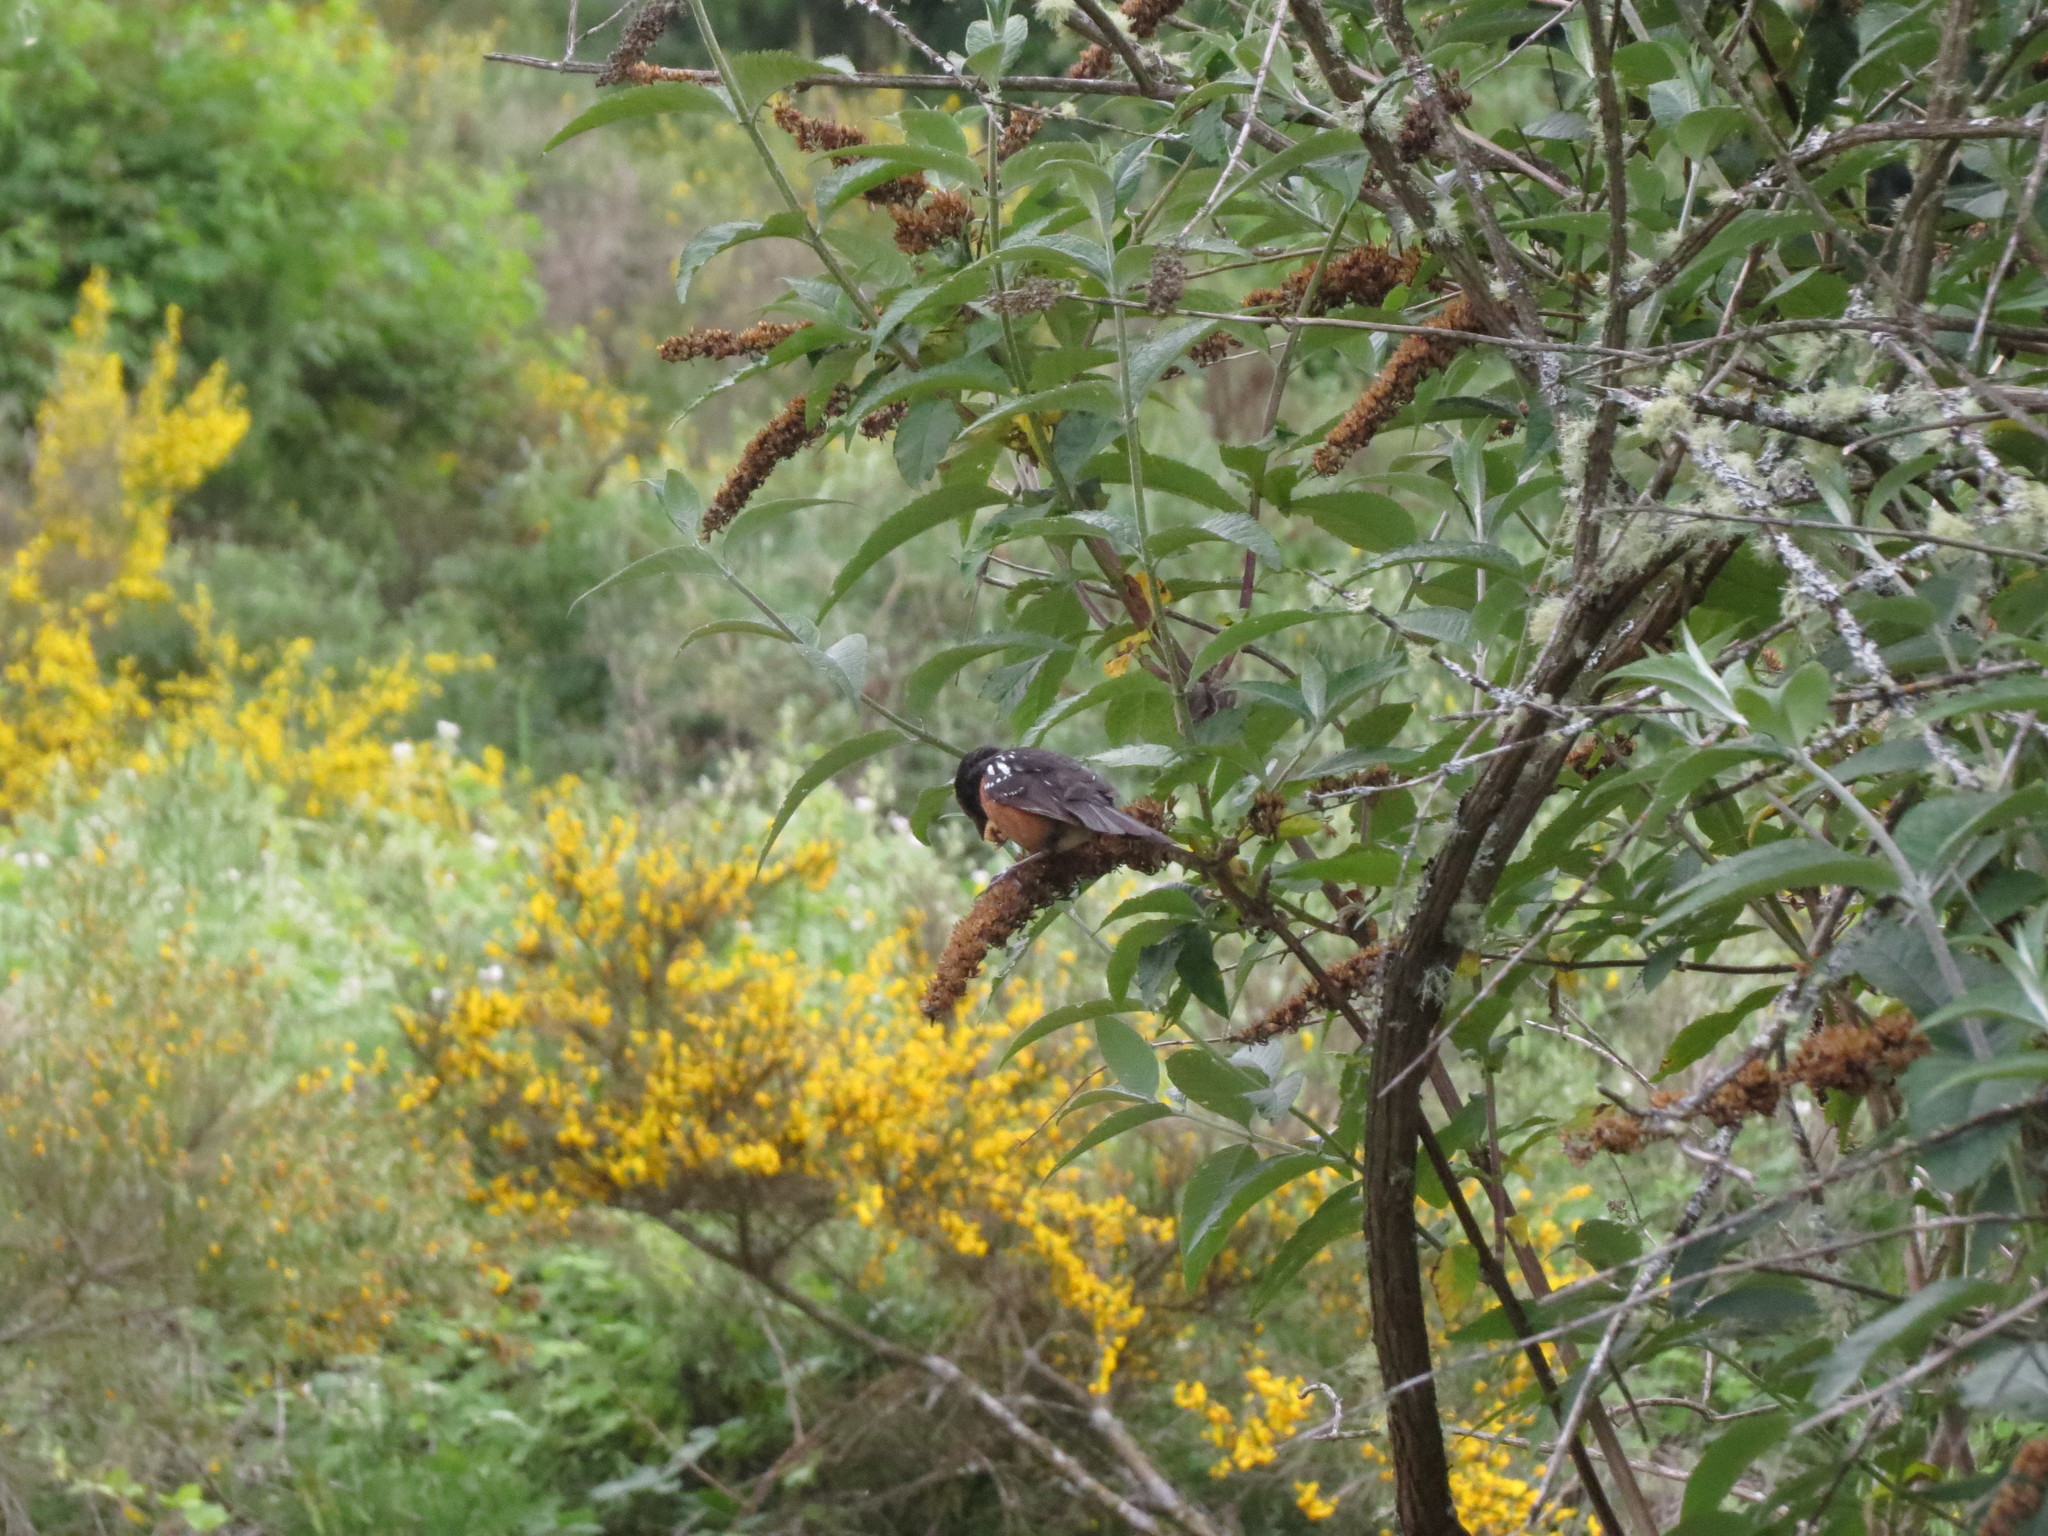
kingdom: Animalia
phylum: Chordata
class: Aves
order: Passeriformes
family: Passerellidae
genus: Pipilo
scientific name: Pipilo maculatus
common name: Spotted towhee
